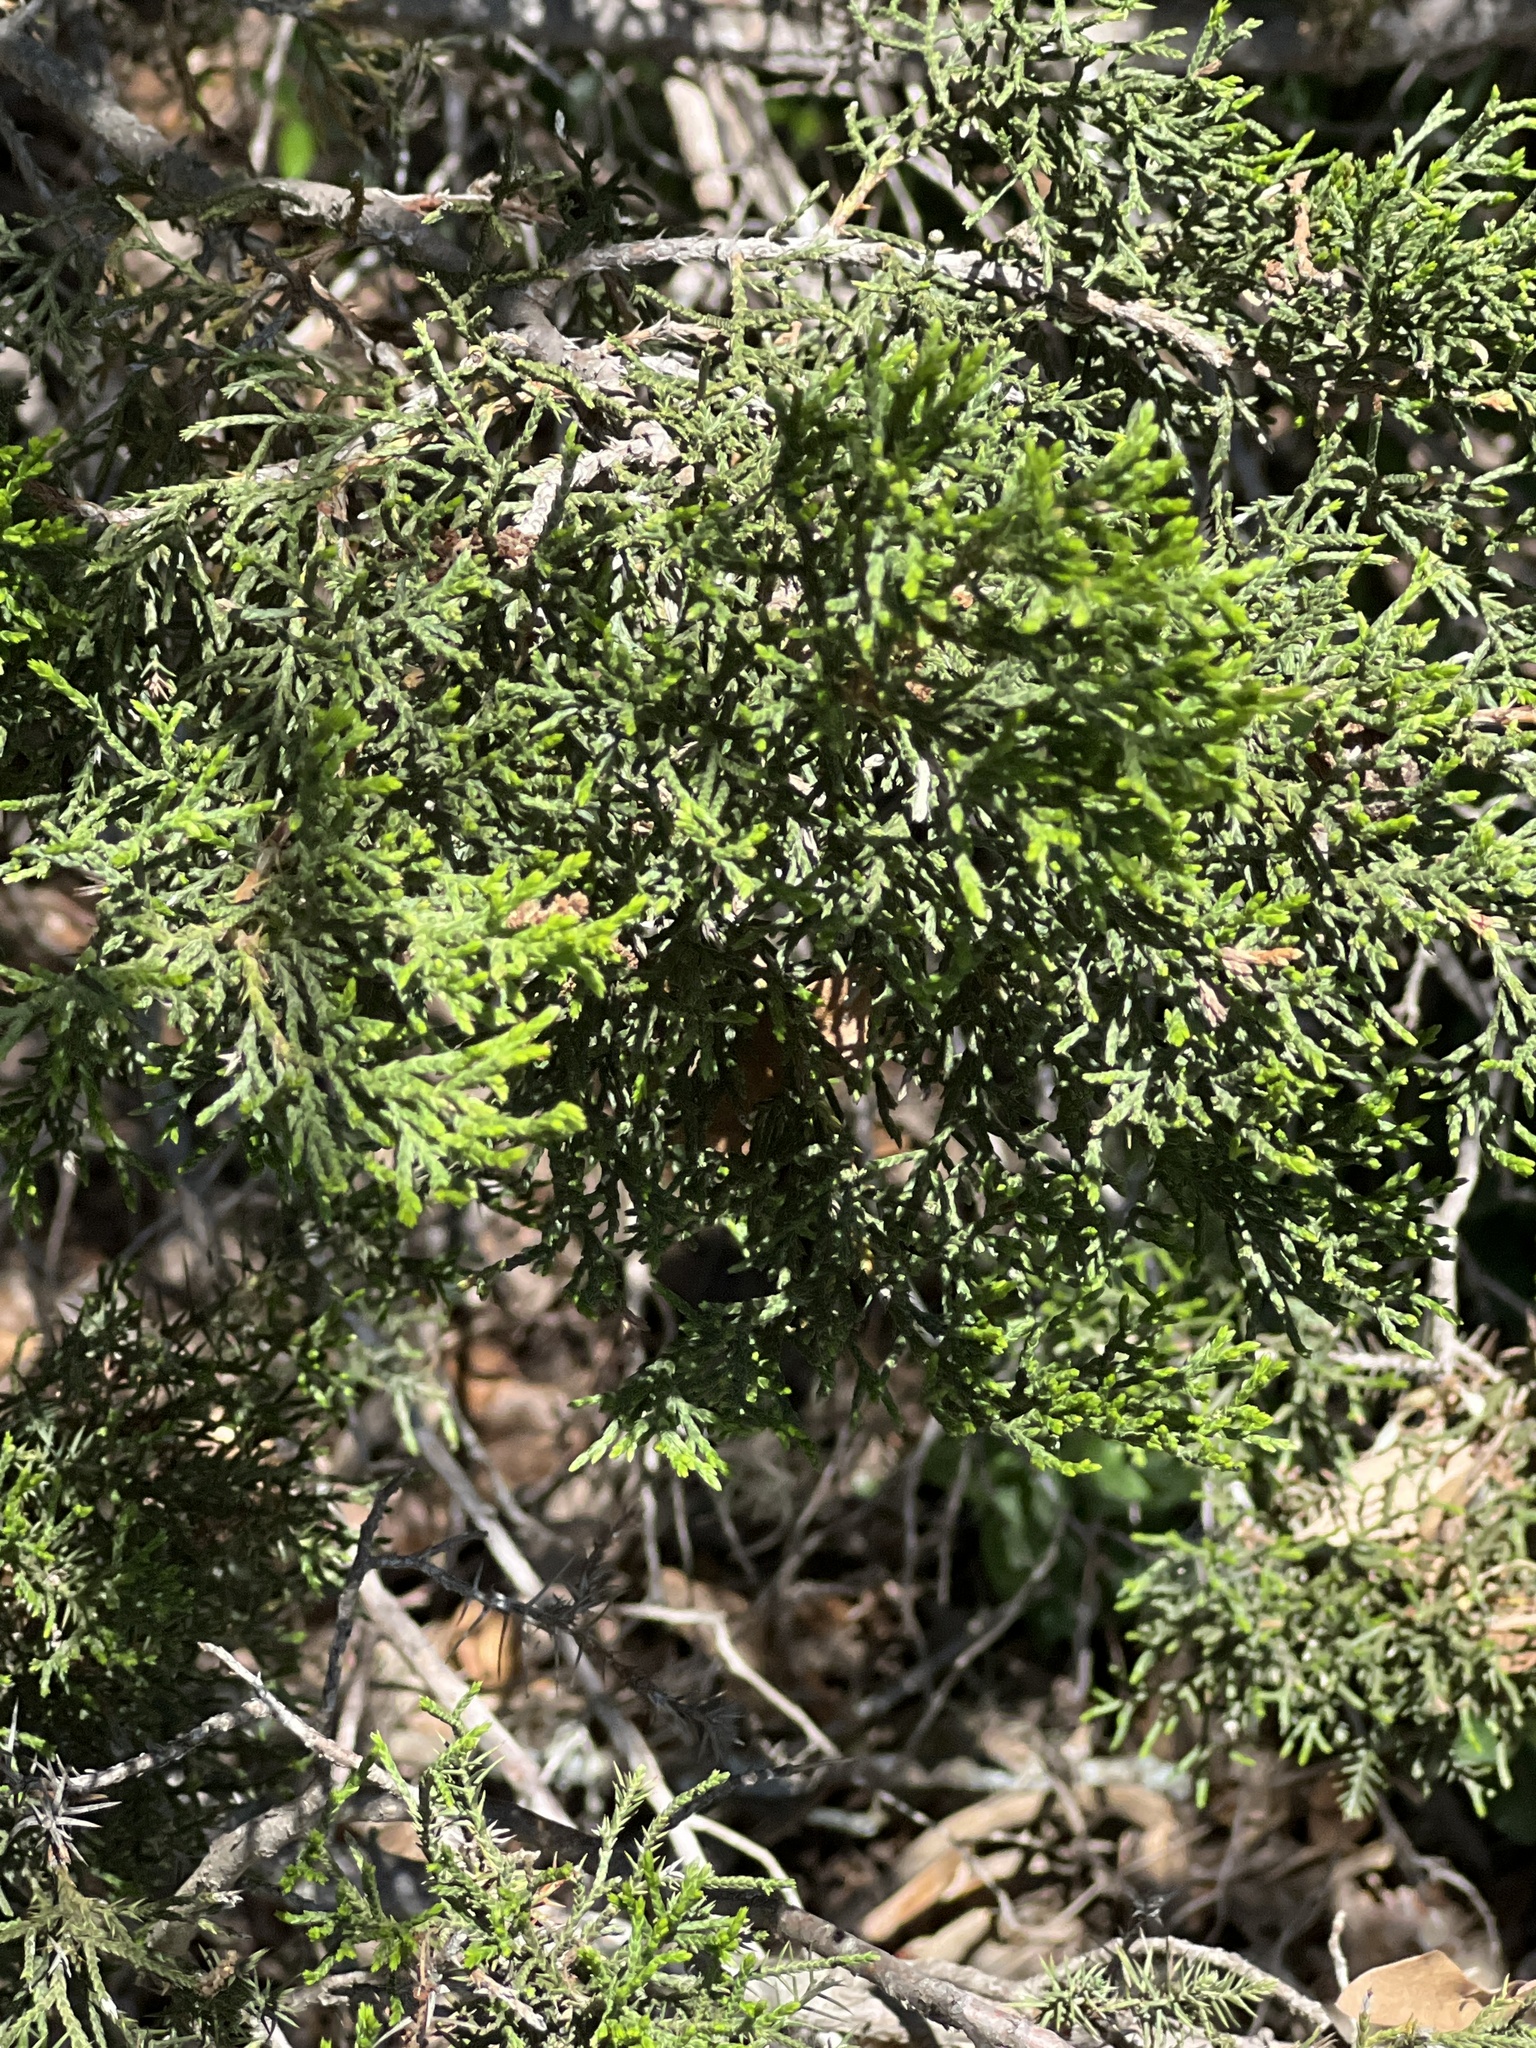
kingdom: Plantae
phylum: Tracheophyta
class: Pinopsida
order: Pinales
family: Cupressaceae
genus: Juniperus
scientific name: Juniperus ashei
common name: Mexican juniper
